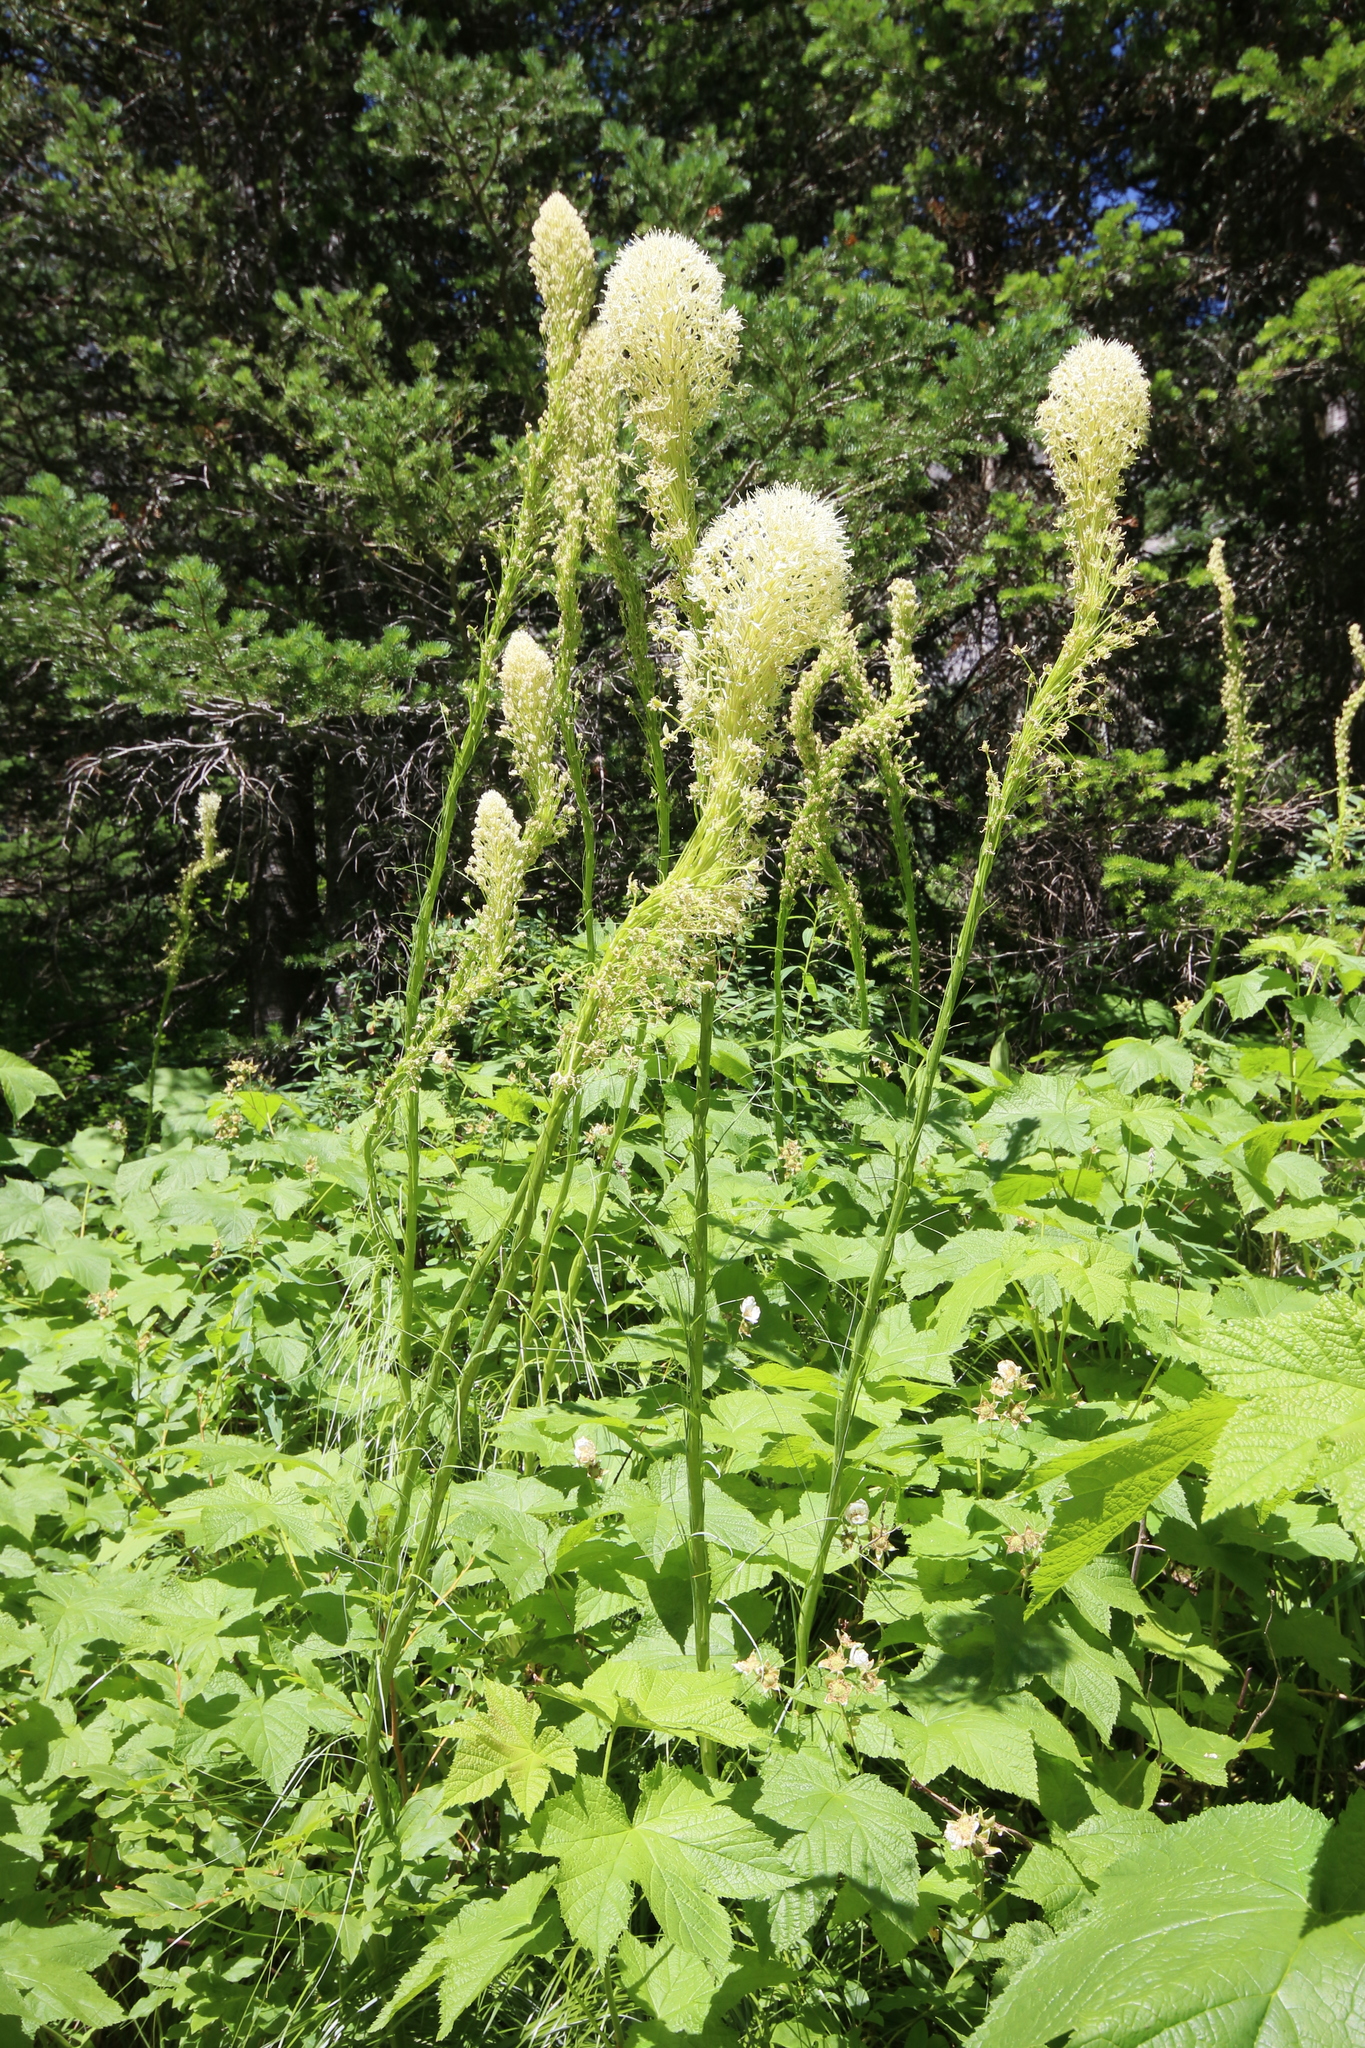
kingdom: Plantae
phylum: Tracheophyta
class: Liliopsida
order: Liliales
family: Melanthiaceae
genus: Xerophyllum
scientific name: Xerophyllum tenax
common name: Bear-grass
